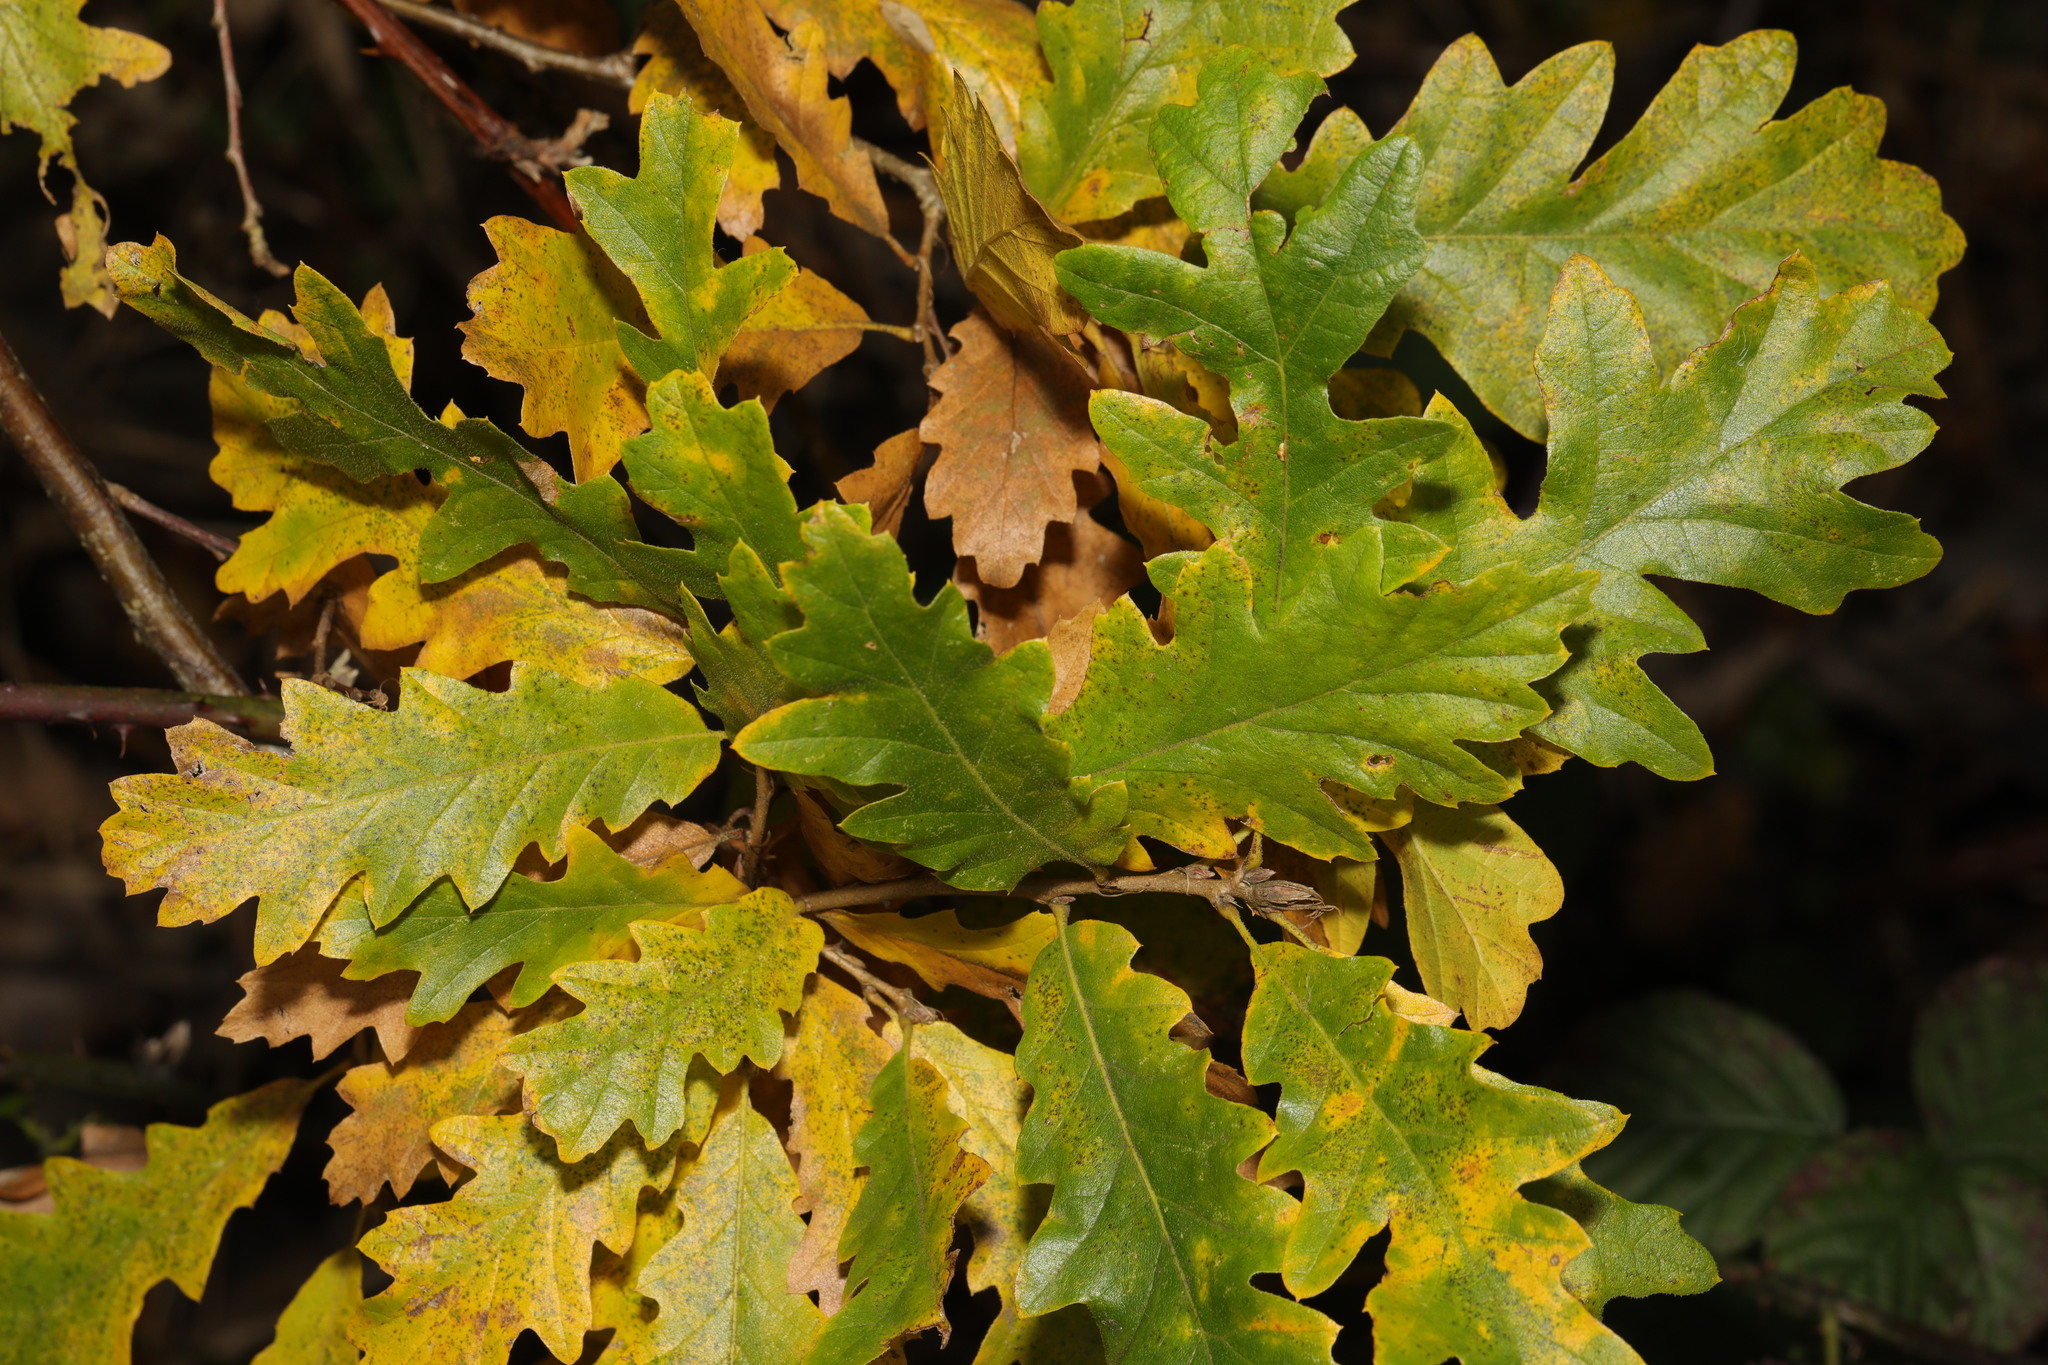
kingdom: Plantae
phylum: Tracheophyta
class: Magnoliopsida
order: Fagales
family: Fagaceae
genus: Quercus
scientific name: Quercus cerris
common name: Turkey oak
